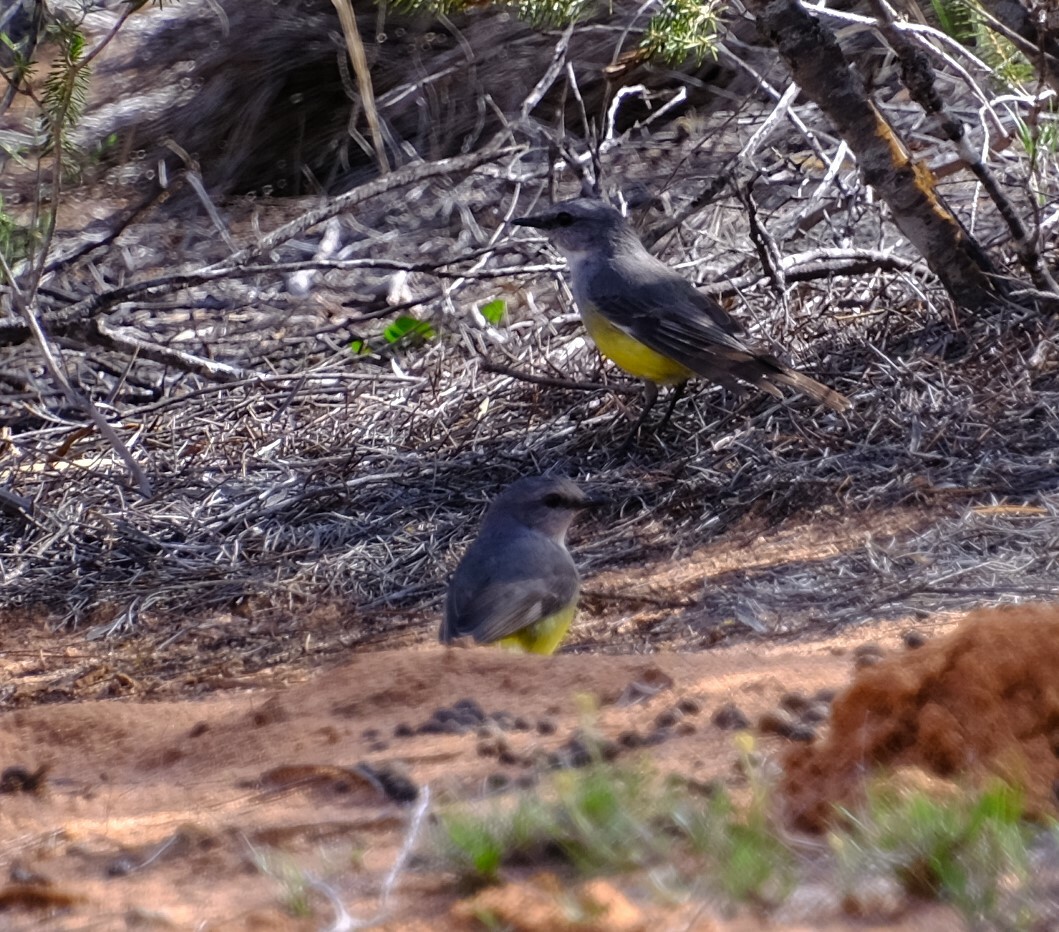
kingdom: Animalia
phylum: Chordata
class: Aves
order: Passeriformes
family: Petroicidae
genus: Eopsaltria
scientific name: Eopsaltria griseogularis
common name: Western yellow robin
